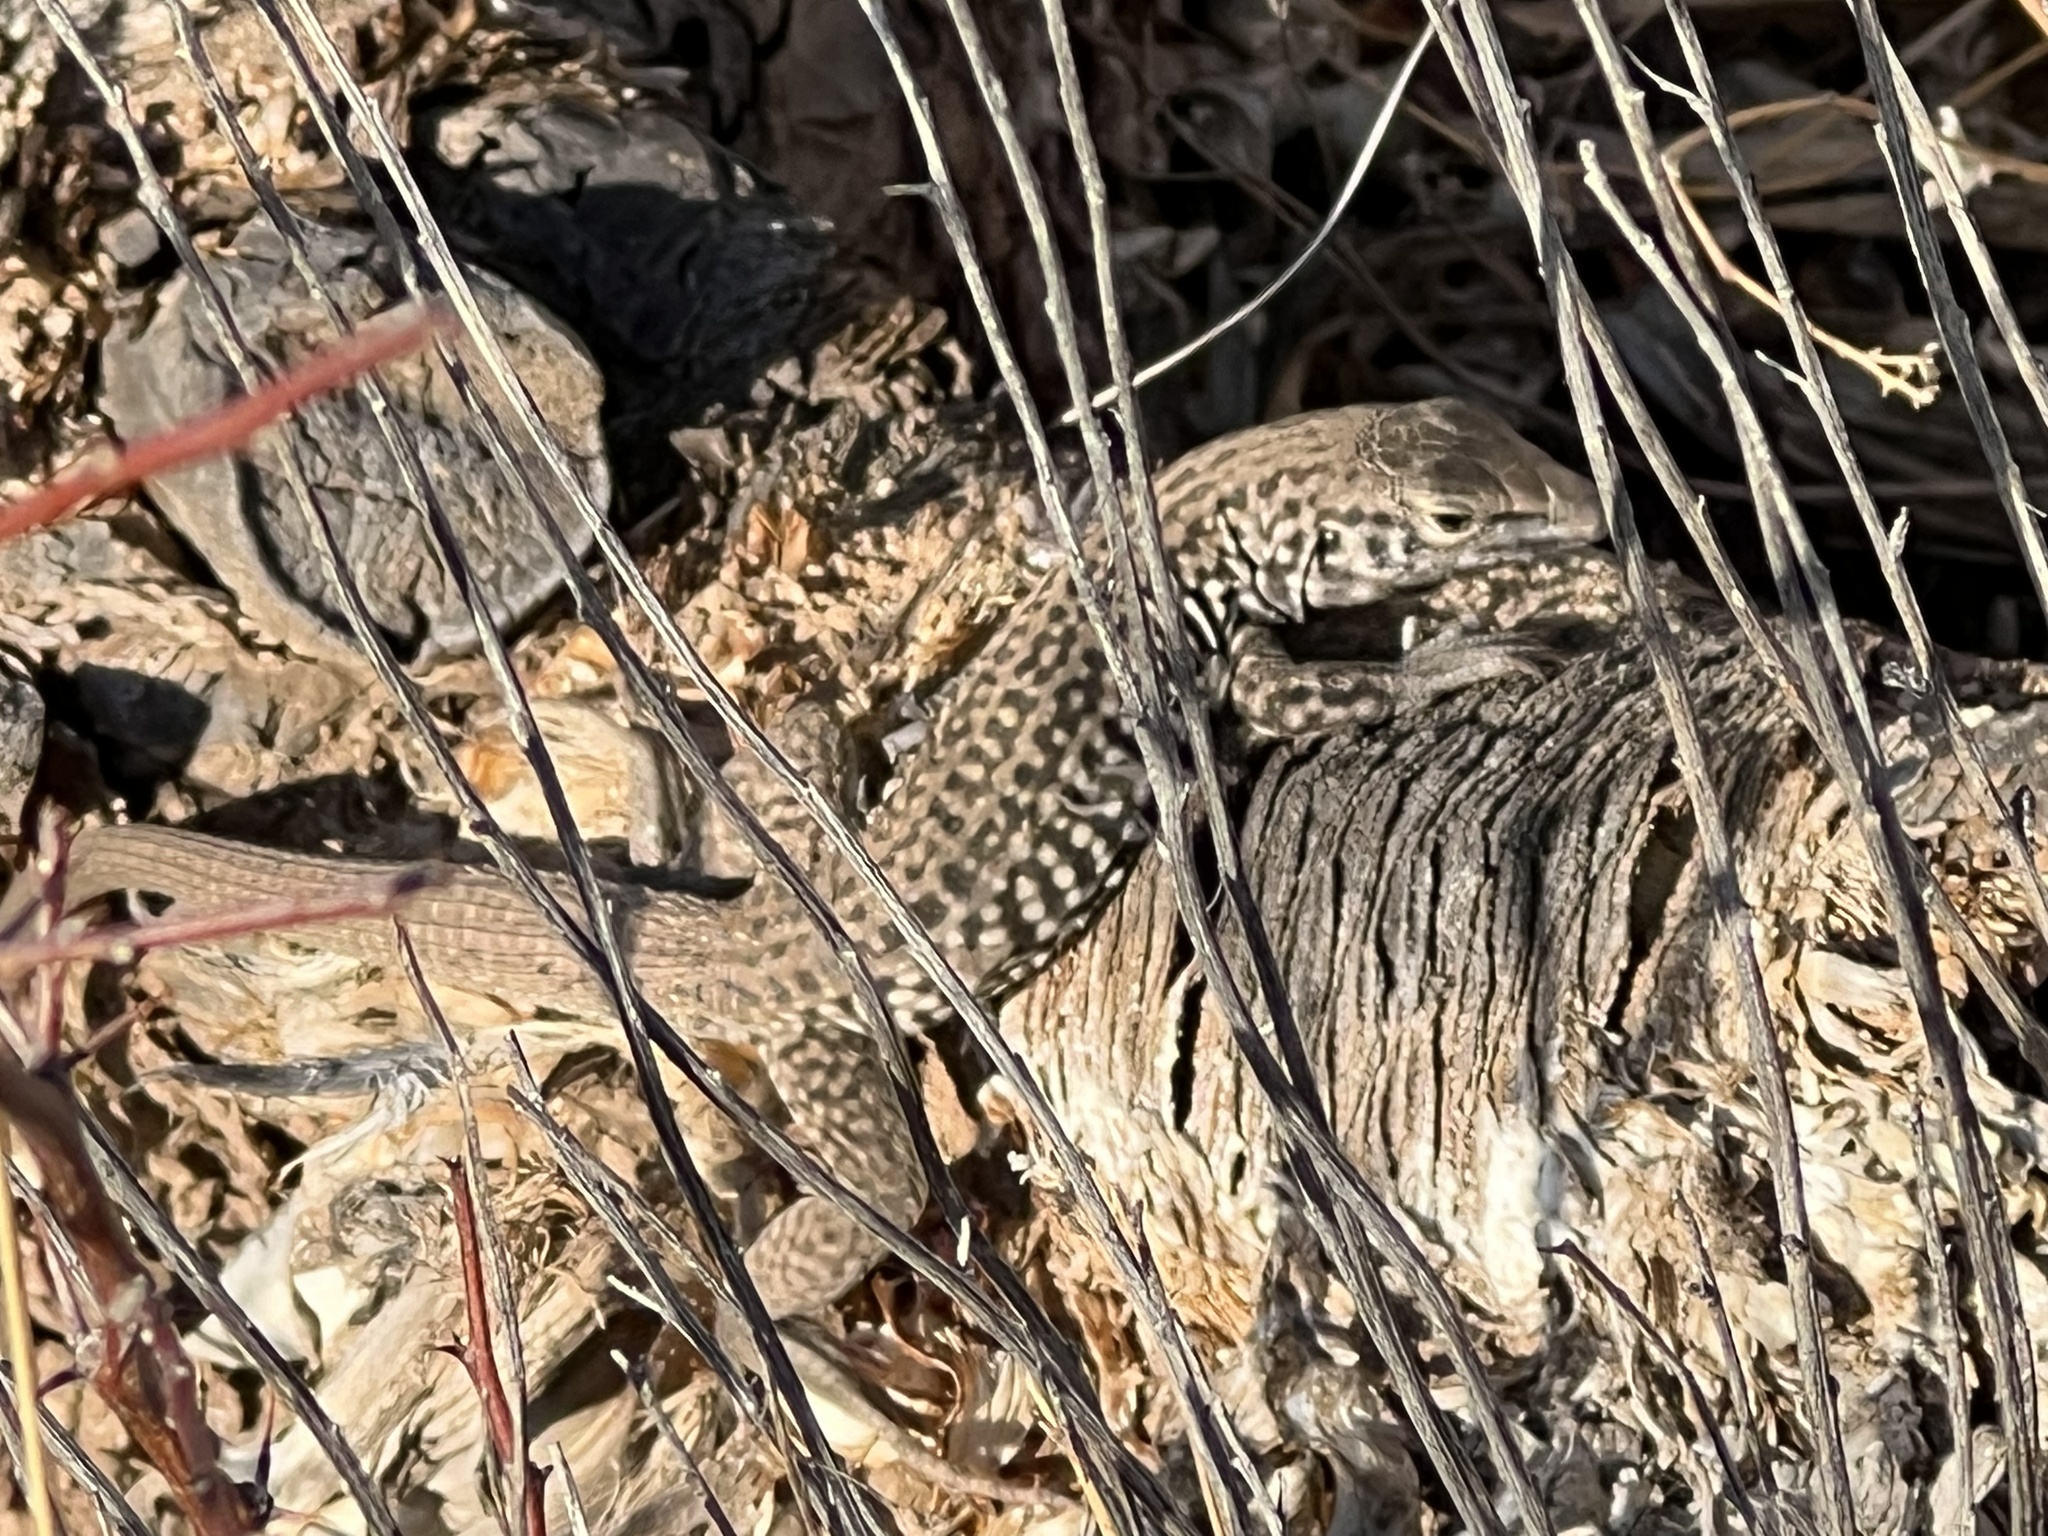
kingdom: Animalia
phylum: Chordata
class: Squamata
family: Teiidae
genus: Aspidoscelis
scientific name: Aspidoscelis tigris
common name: Tiger whiptail
